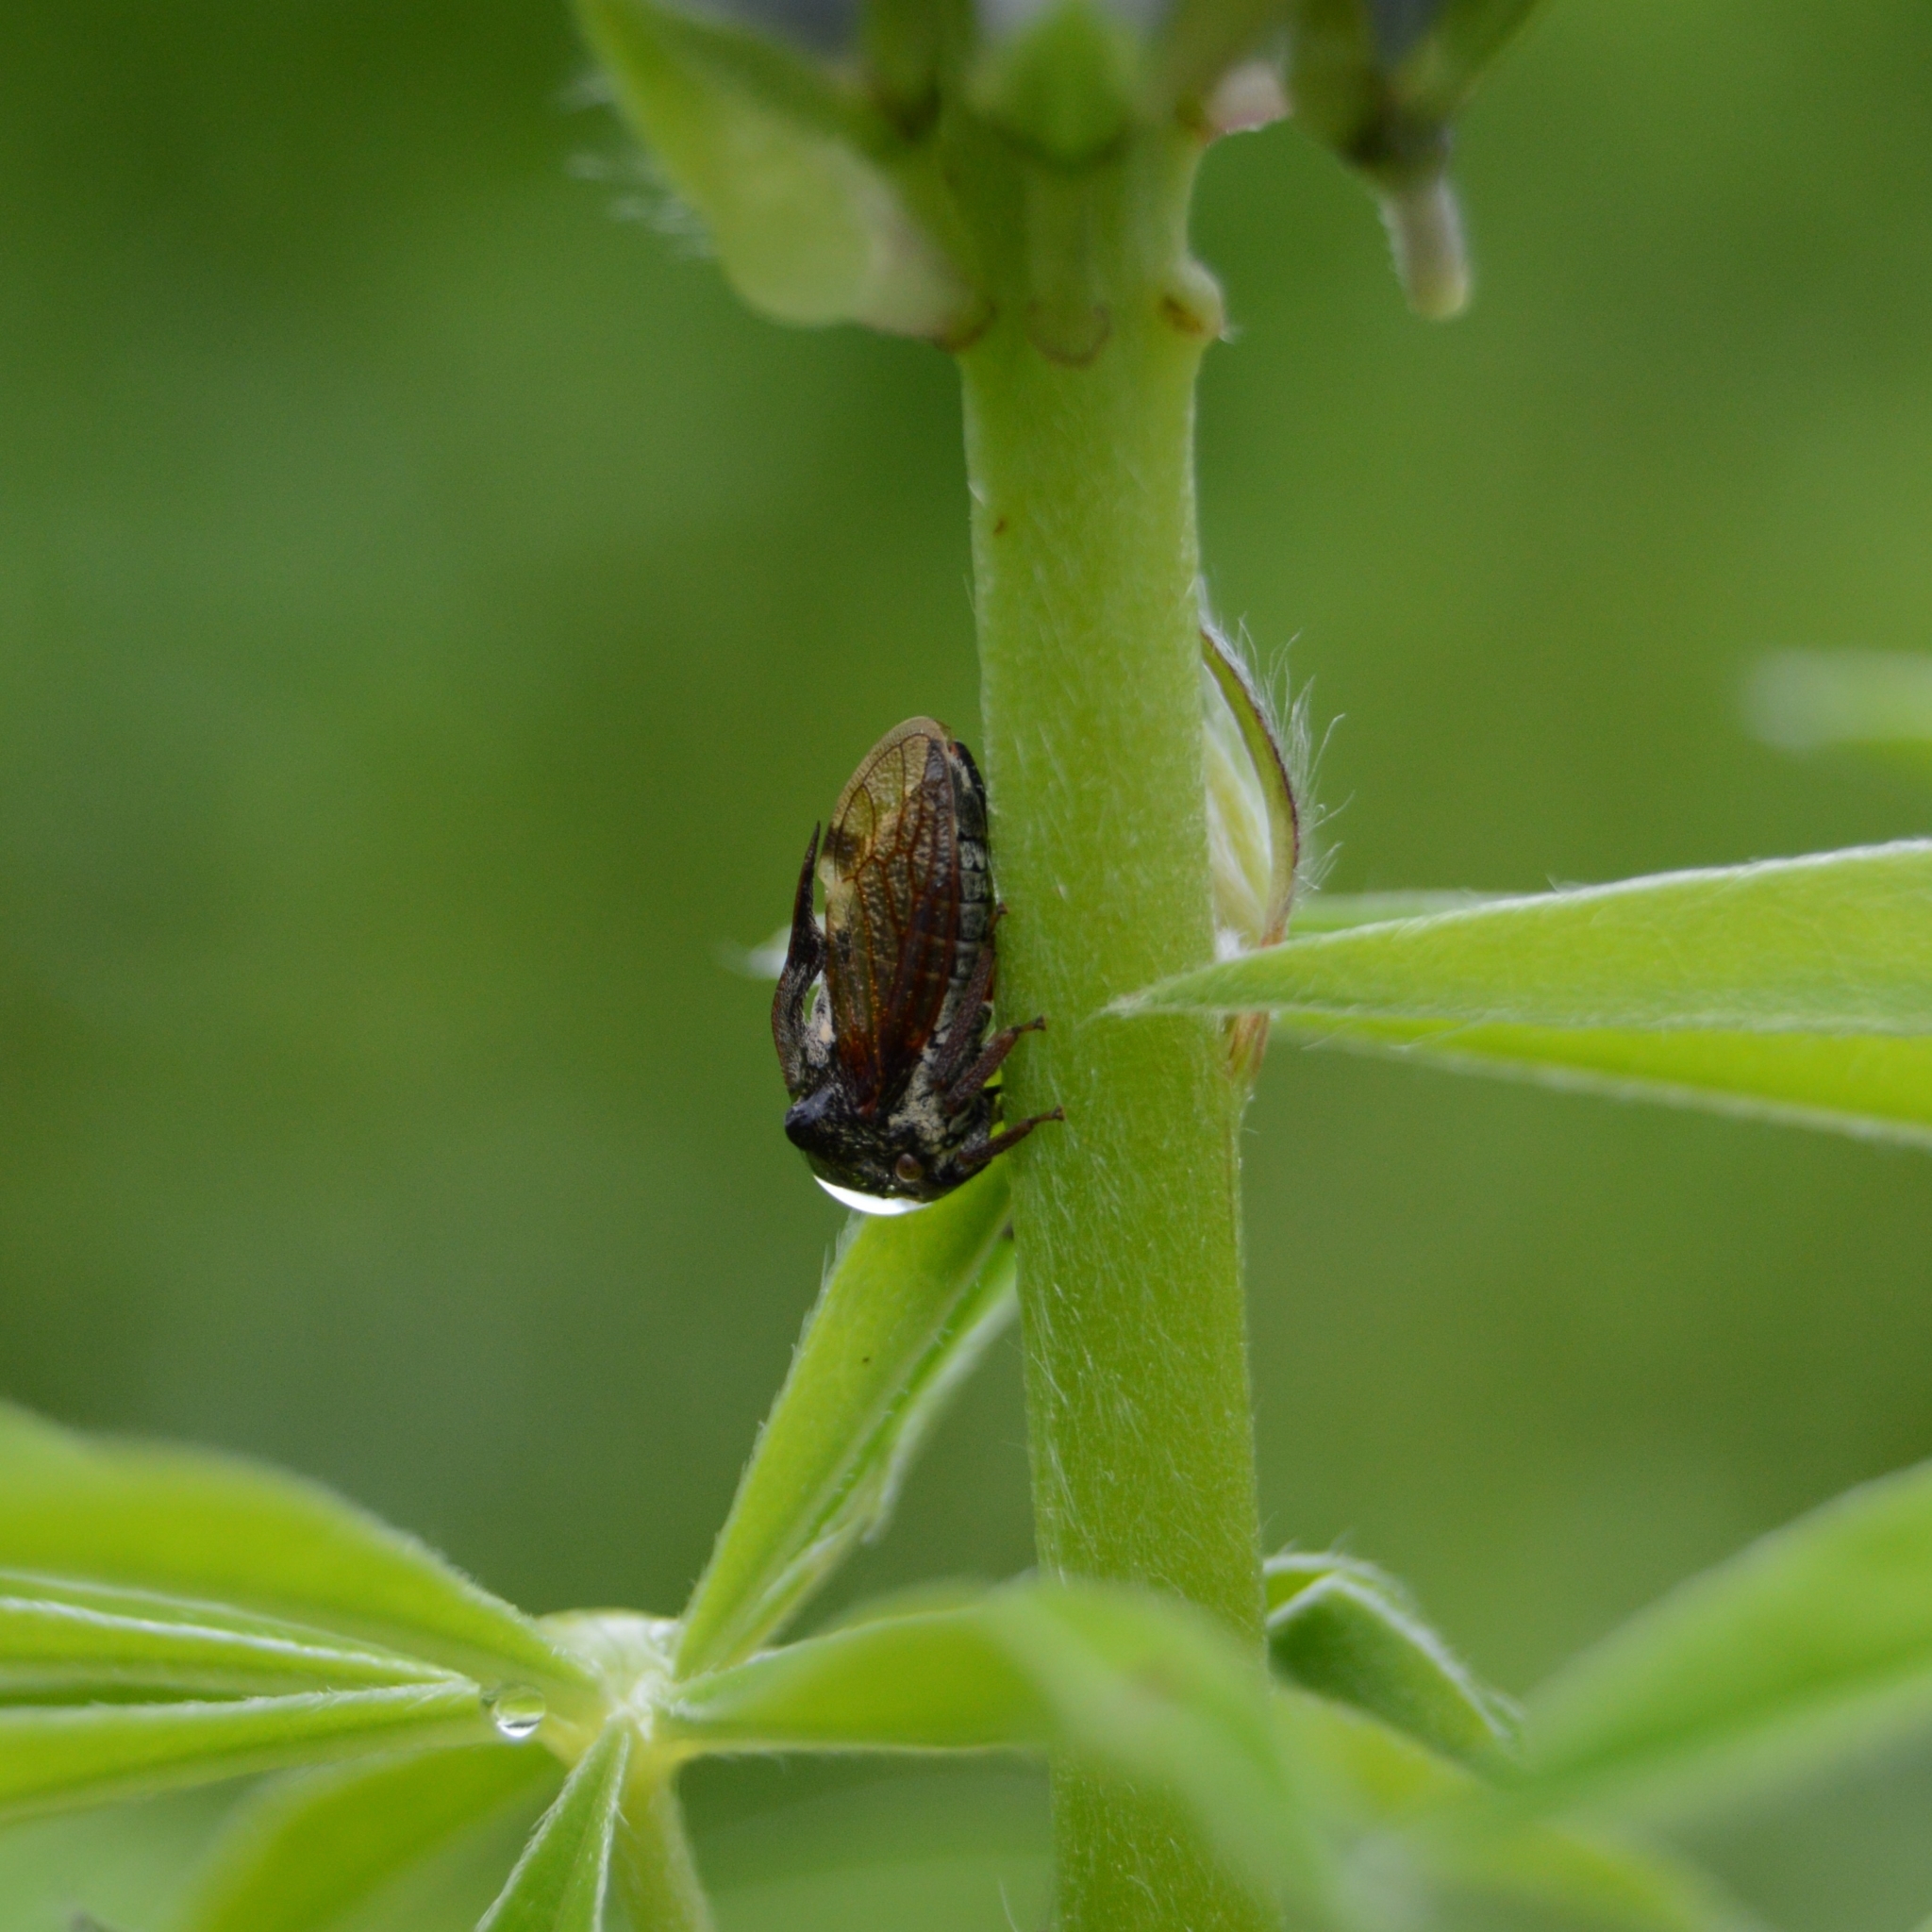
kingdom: Animalia
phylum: Arthropoda
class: Insecta
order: Hemiptera
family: Membracidae
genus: Centrotus
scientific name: Centrotus cornuta
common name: Treehopper
